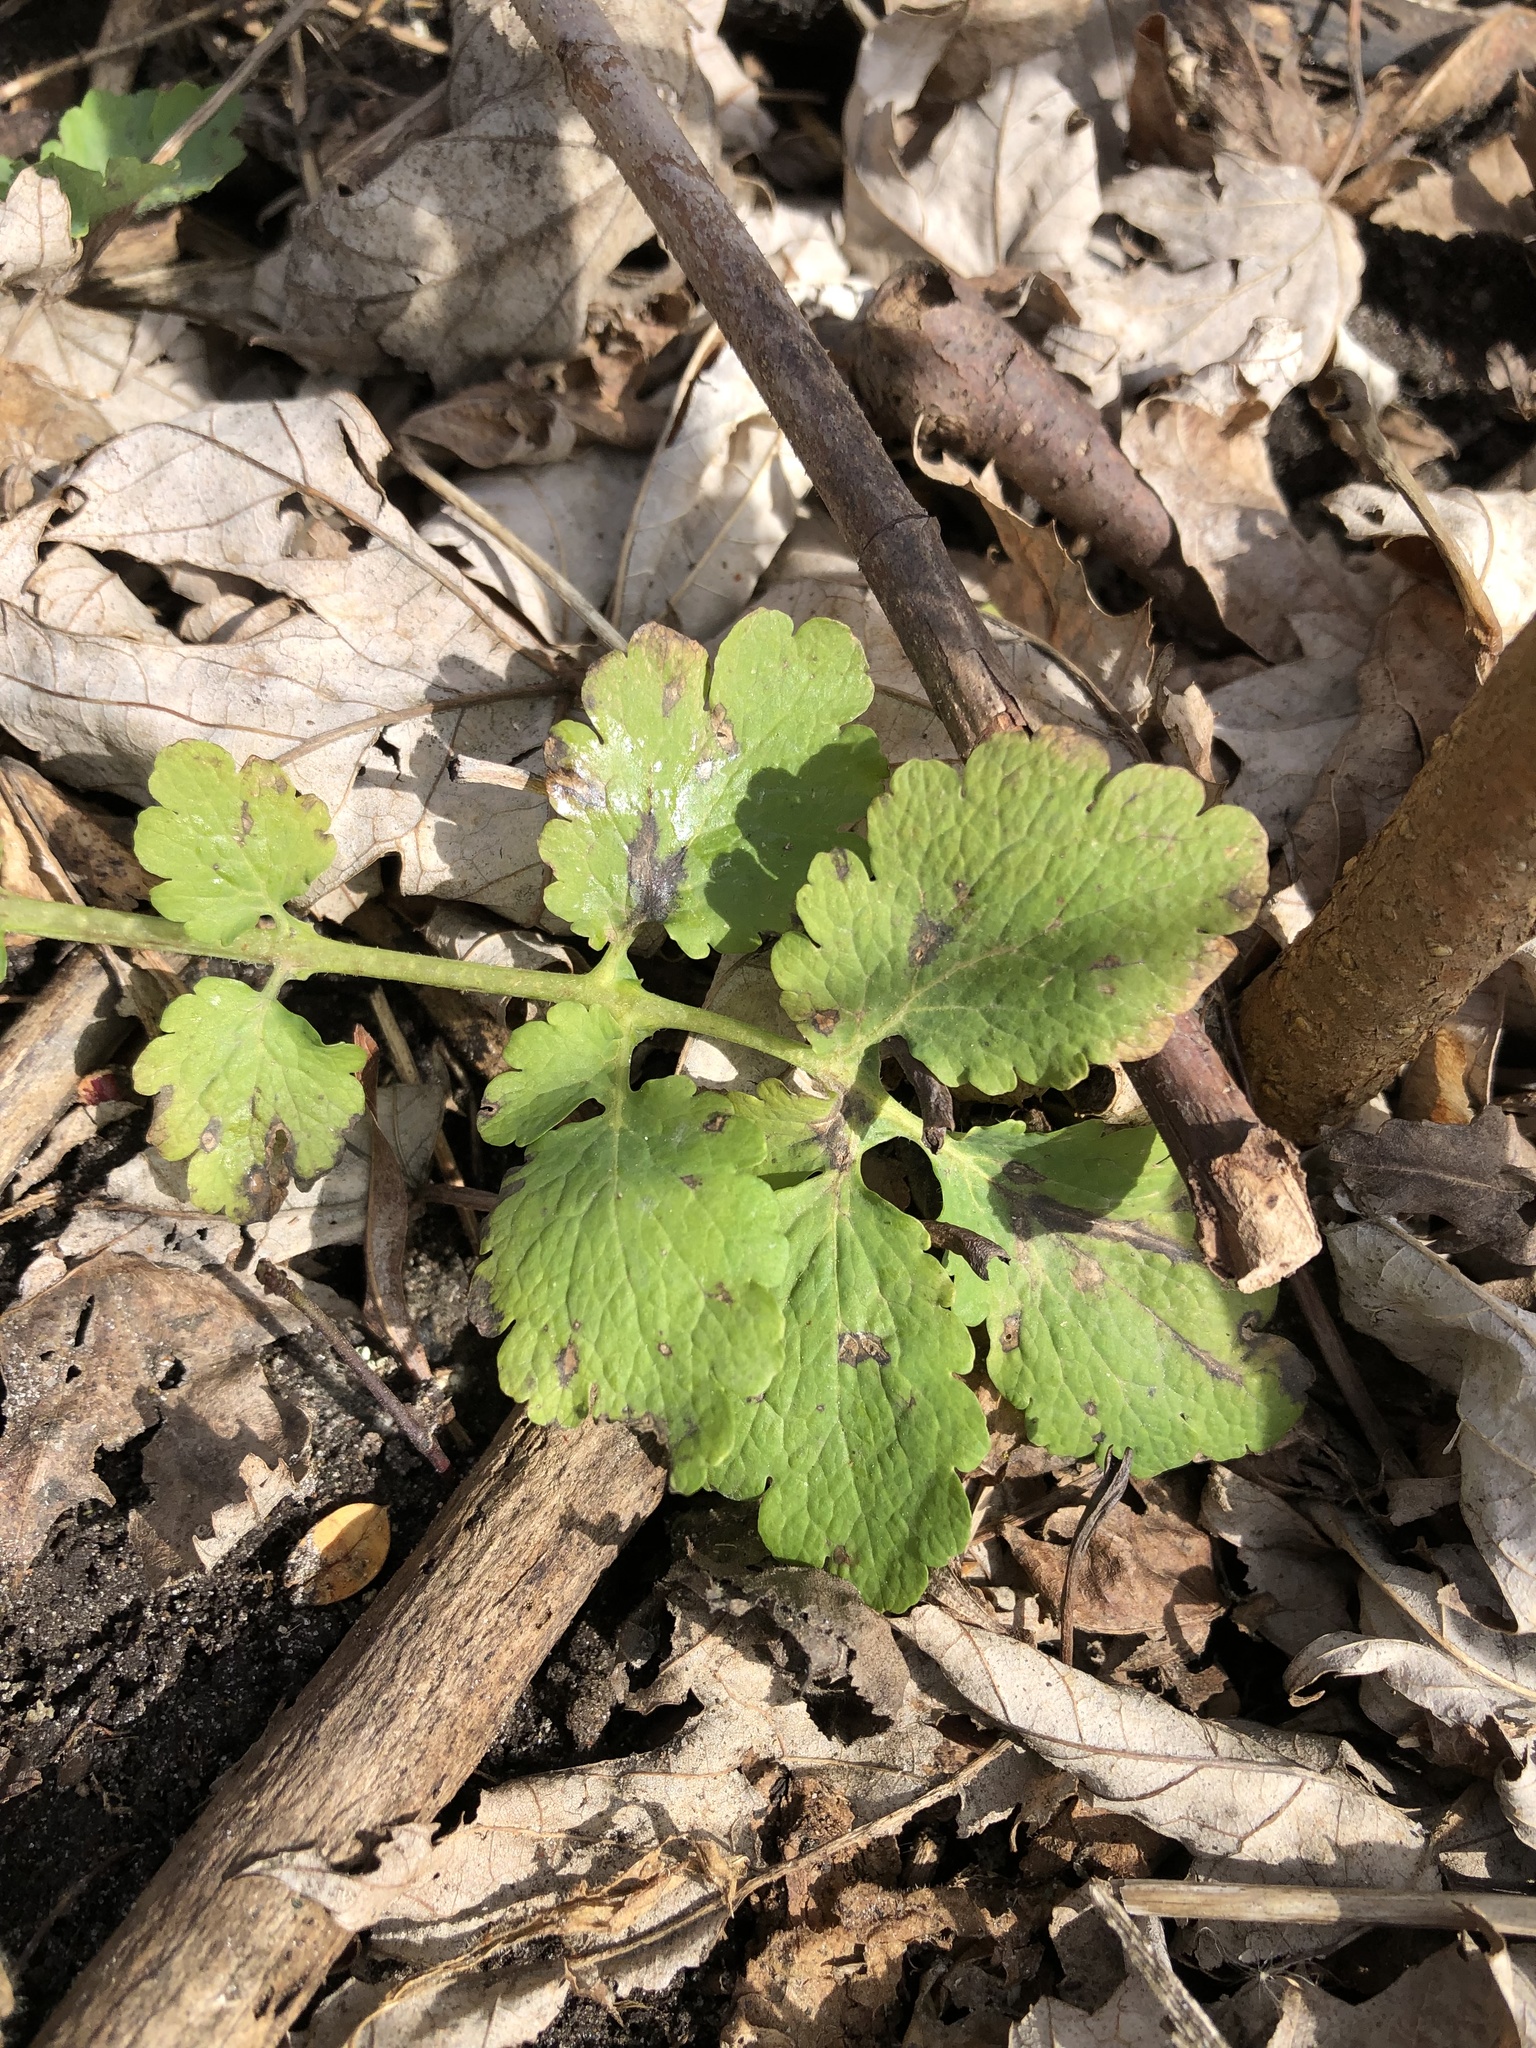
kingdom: Plantae
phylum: Tracheophyta
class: Magnoliopsida
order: Ranunculales
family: Papaveraceae
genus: Chelidonium
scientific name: Chelidonium majus
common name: Greater celandine
